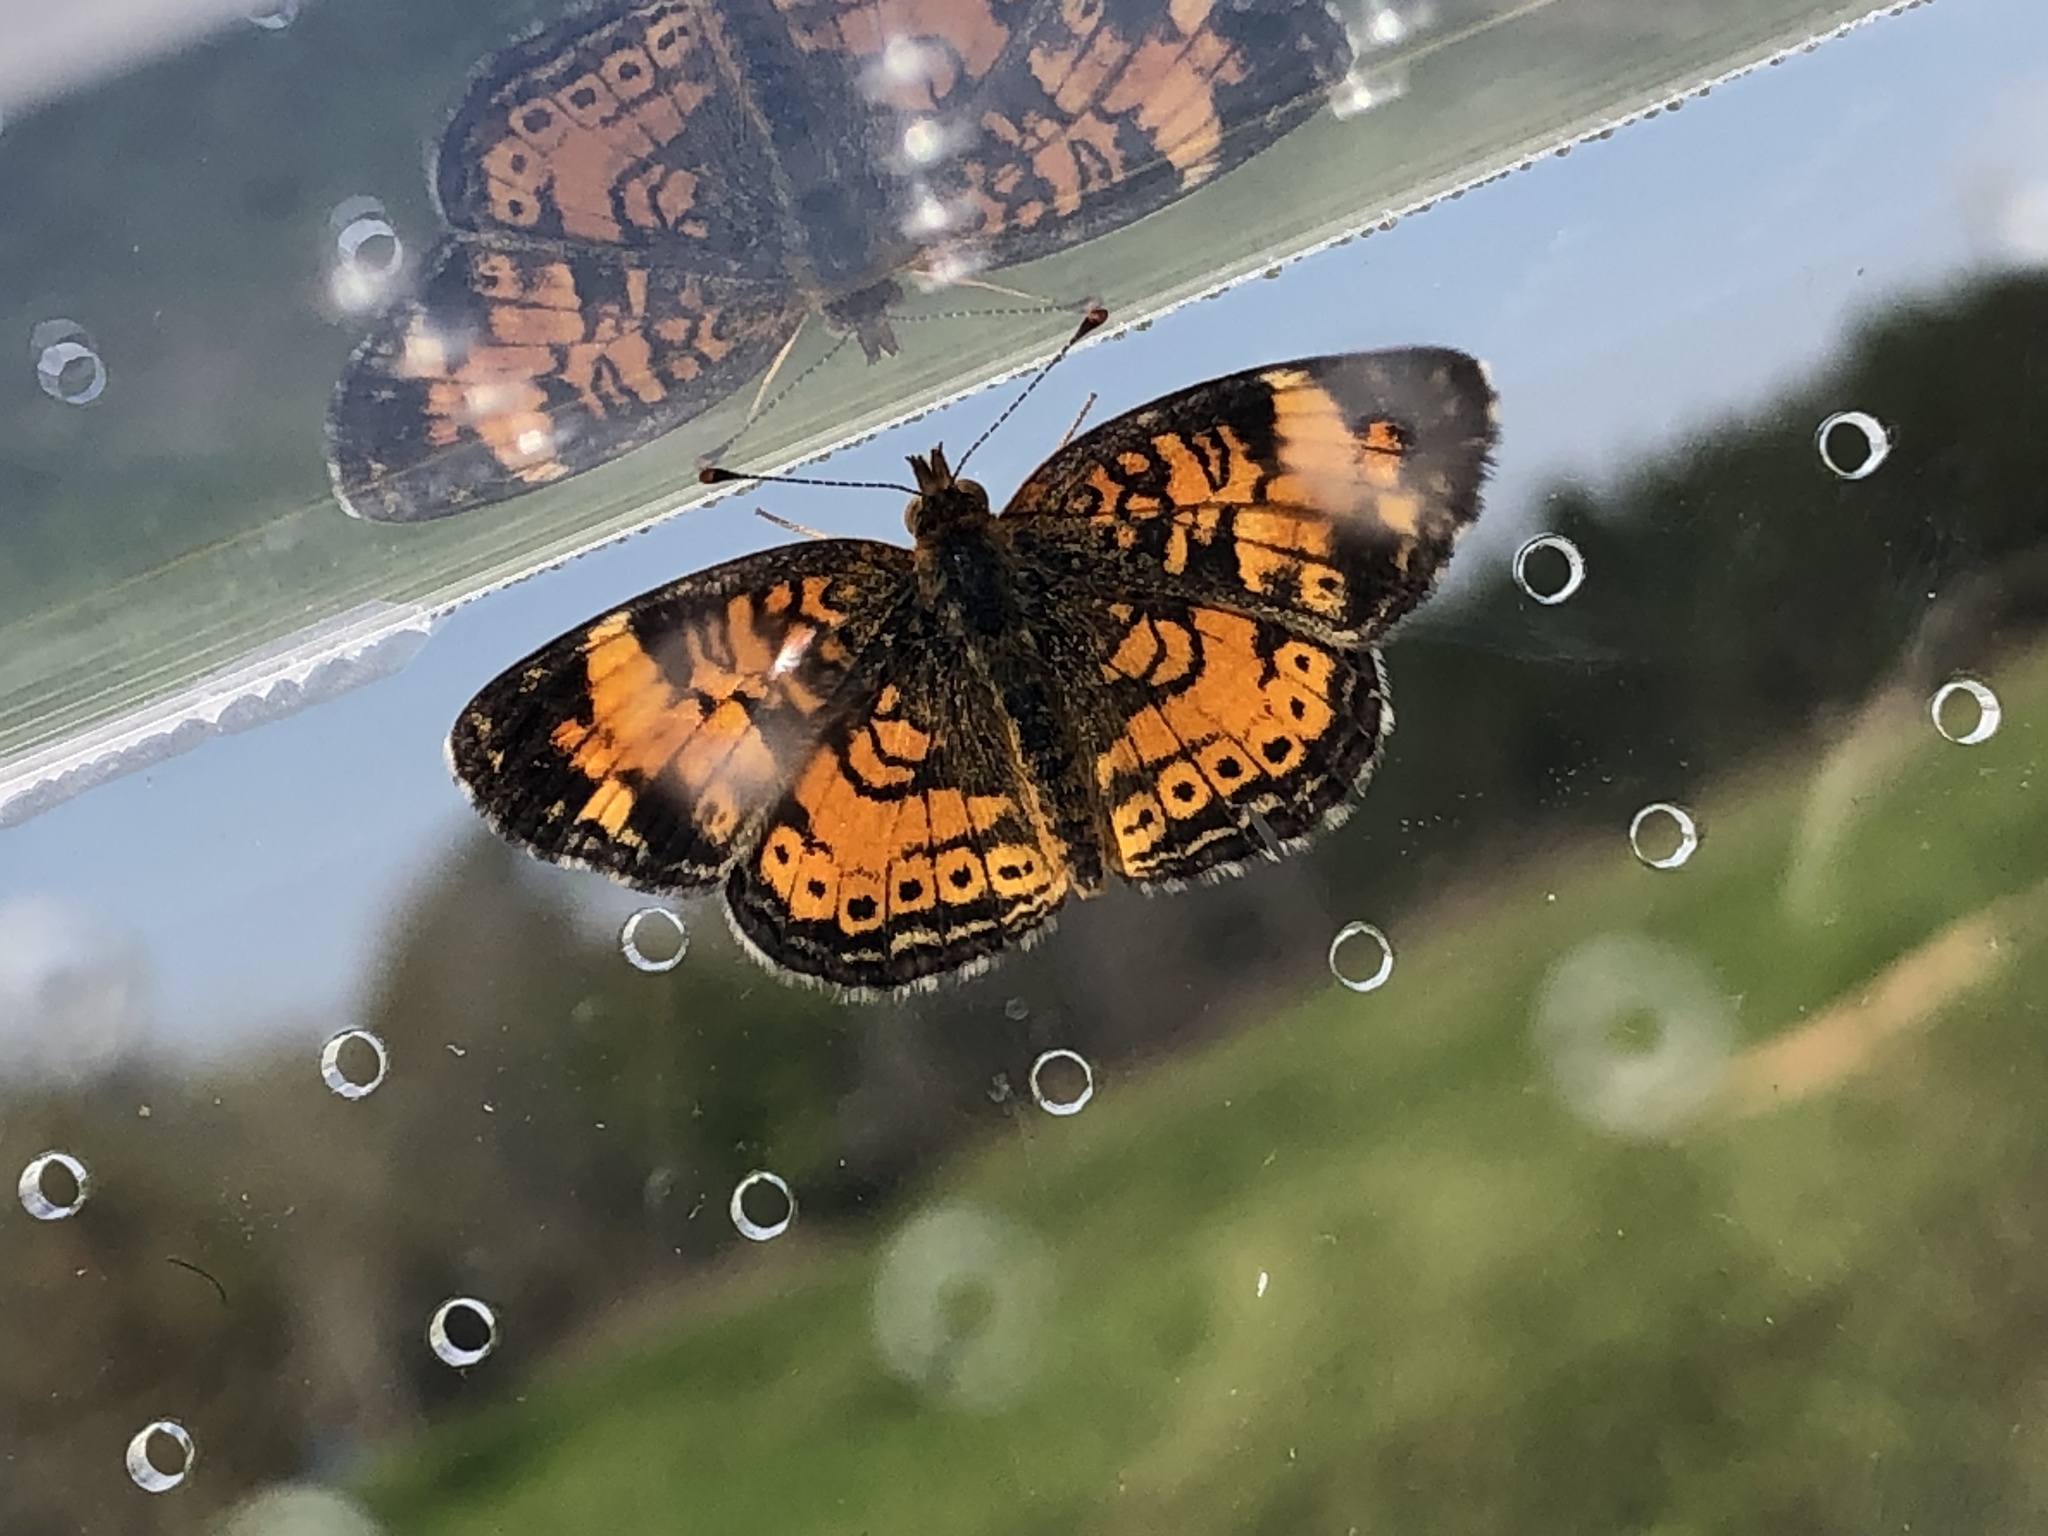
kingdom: Animalia
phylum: Arthropoda
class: Insecta
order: Lepidoptera
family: Nymphalidae
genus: Phyciodes
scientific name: Phyciodes tharos
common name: Pearl crescent
